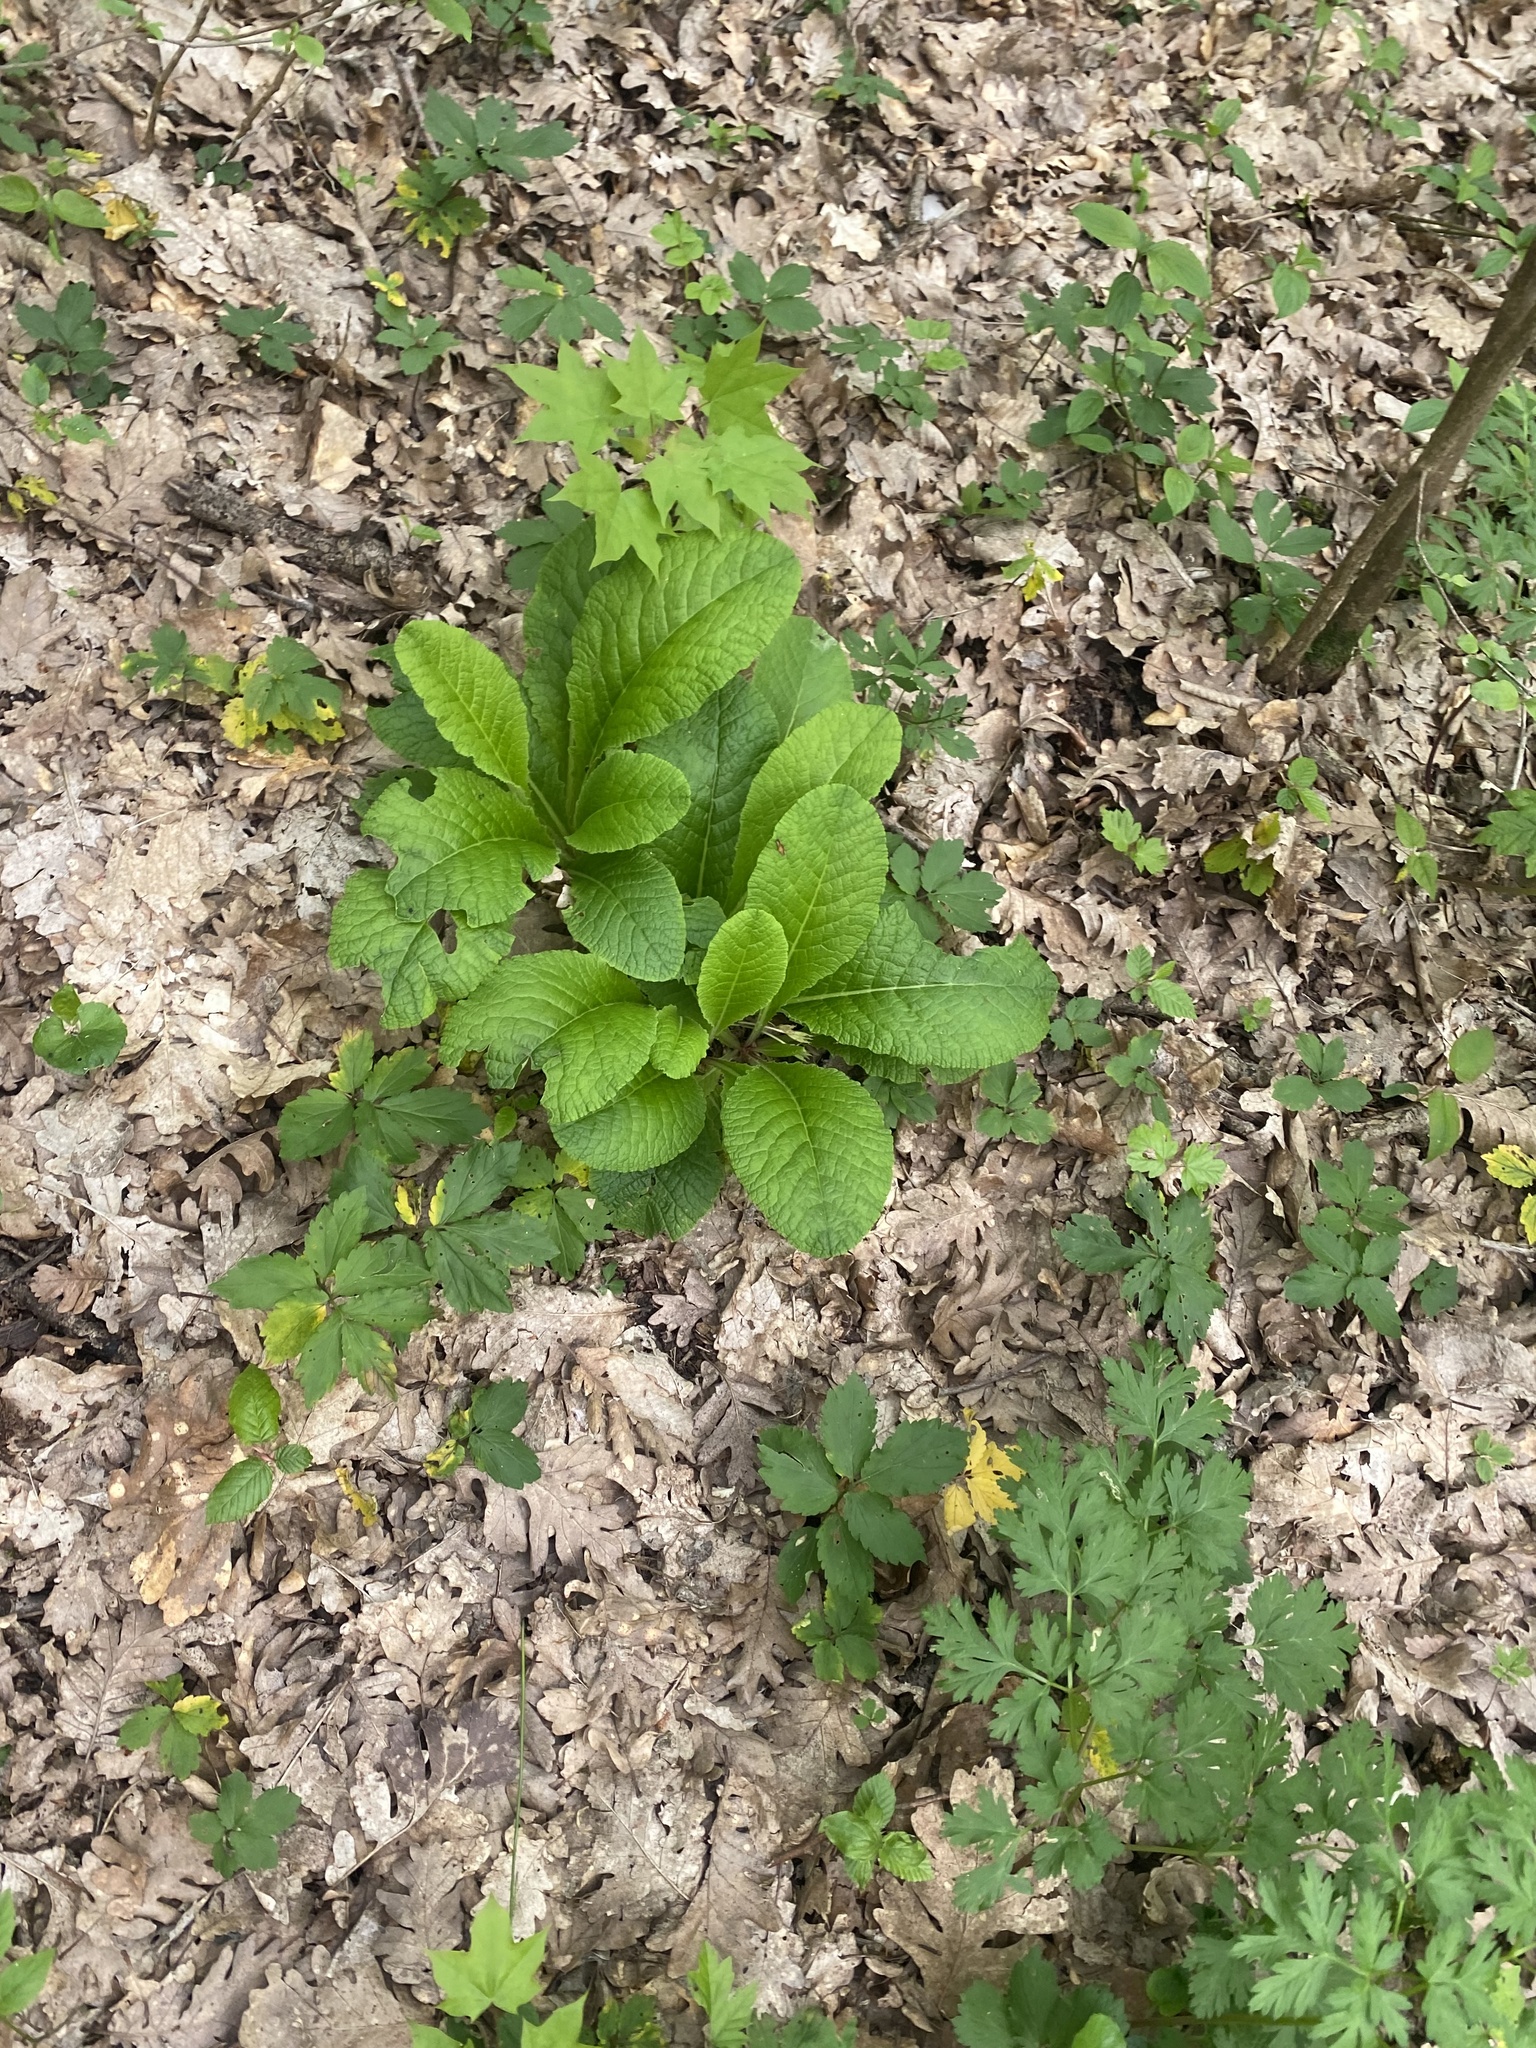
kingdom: Plantae
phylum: Tracheophyta
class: Magnoliopsida
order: Ericales
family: Primulaceae
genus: Primula
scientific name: Primula vulgaris
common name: Primrose
